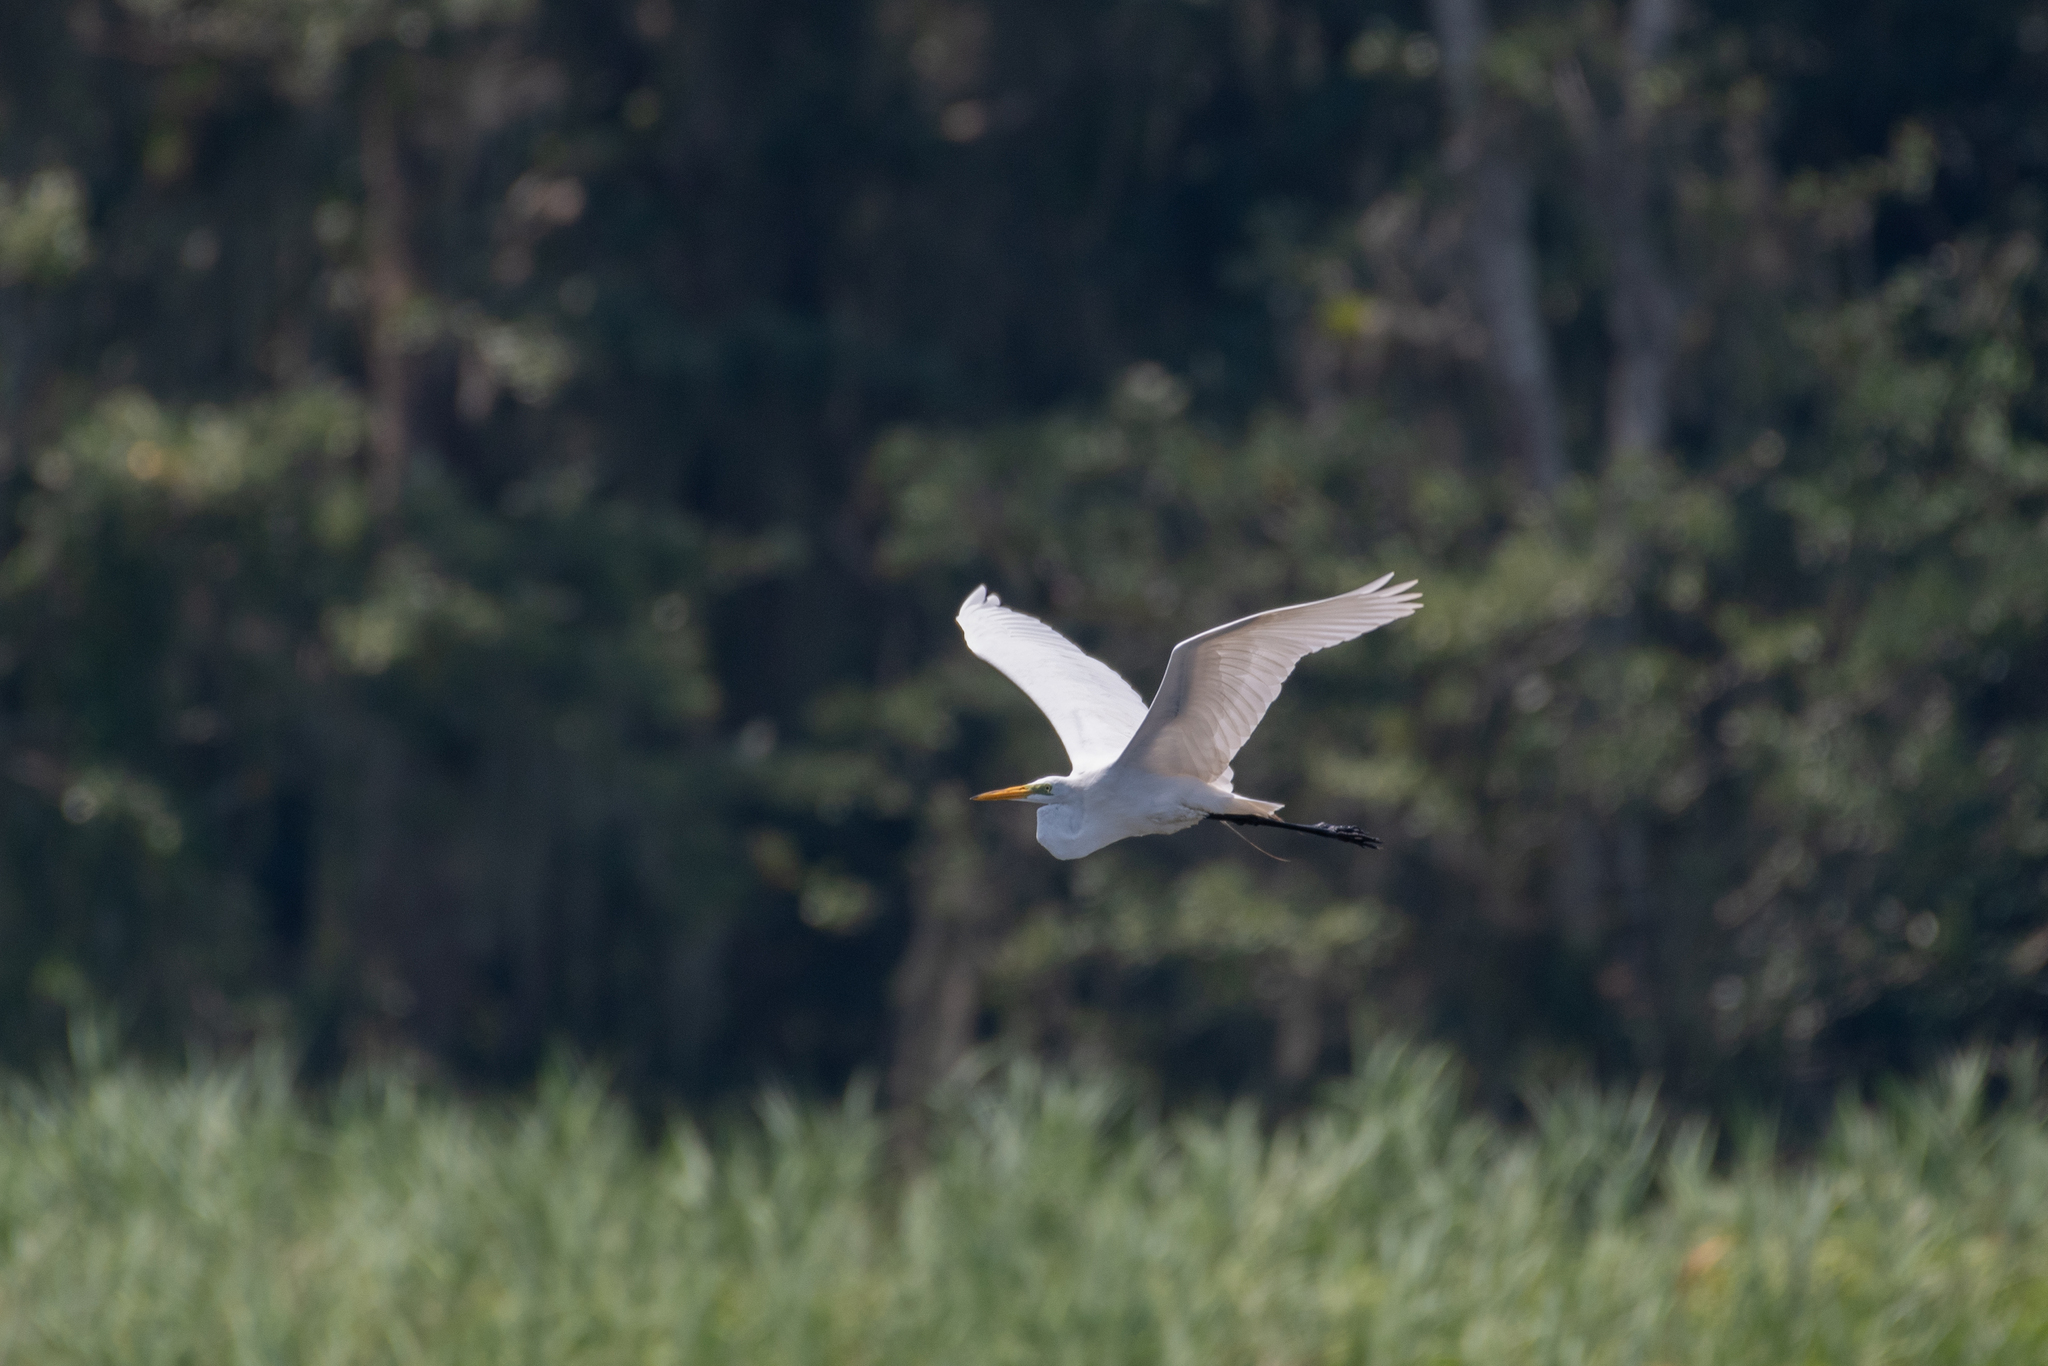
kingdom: Animalia
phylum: Chordata
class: Aves
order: Pelecaniformes
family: Ardeidae
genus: Ardea
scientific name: Ardea alba
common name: Great egret
